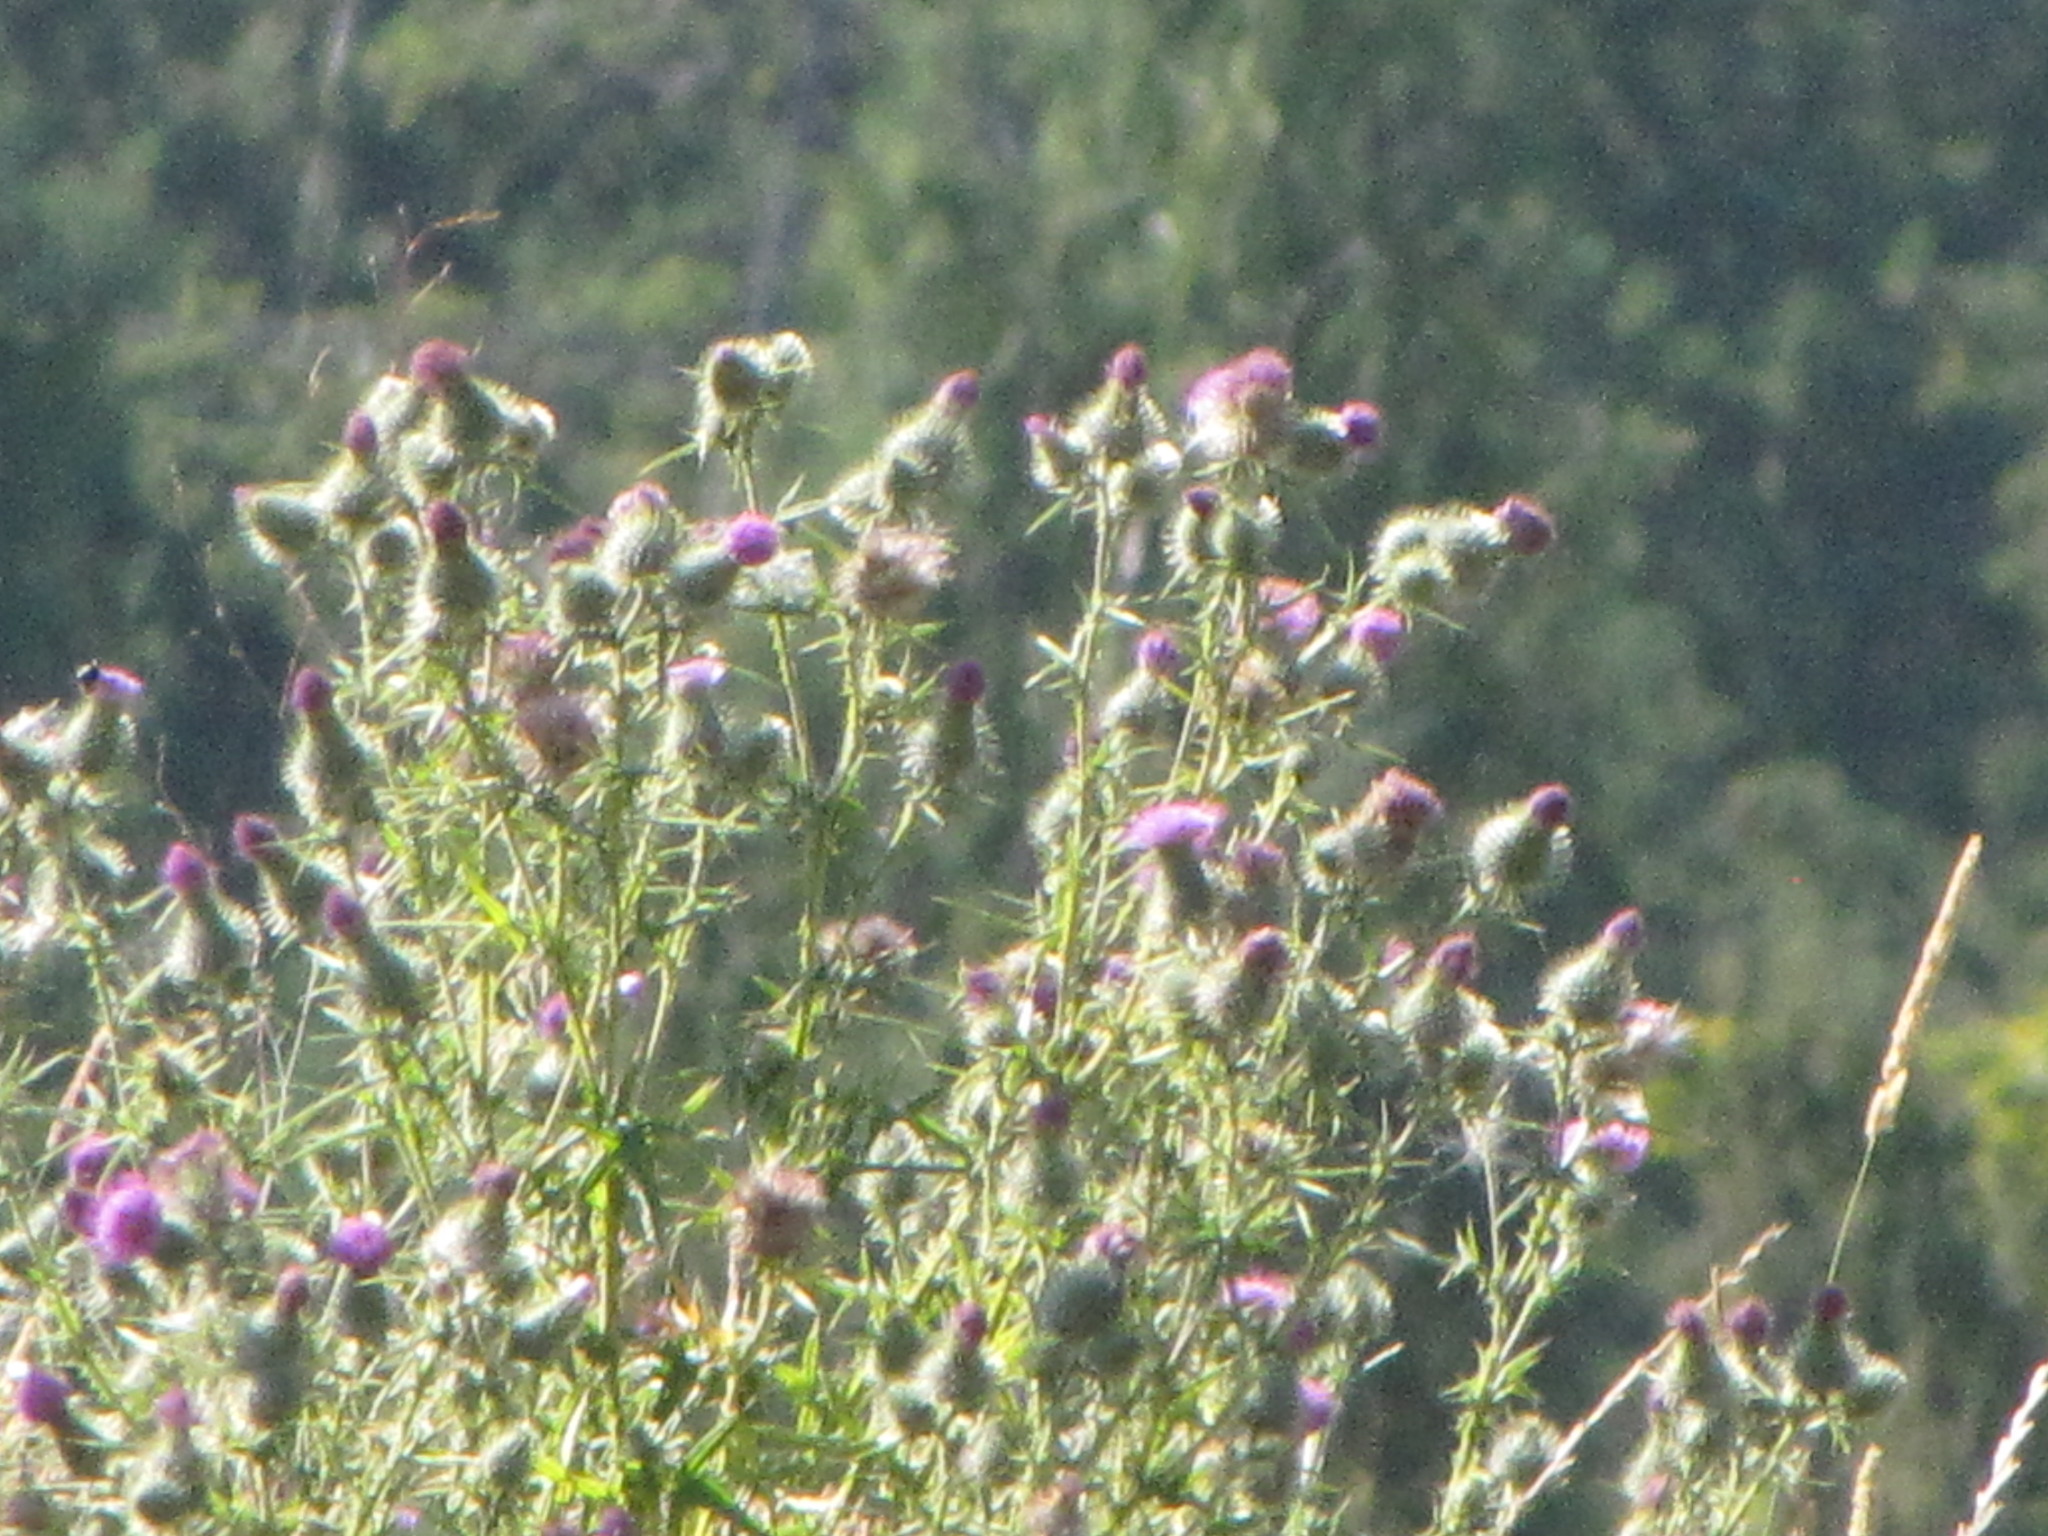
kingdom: Plantae
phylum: Tracheophyta
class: Magnoliopsida
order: Asterales
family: Asteraceae
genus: Cirsium
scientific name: Cirsium vulgare
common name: Bull thistle
